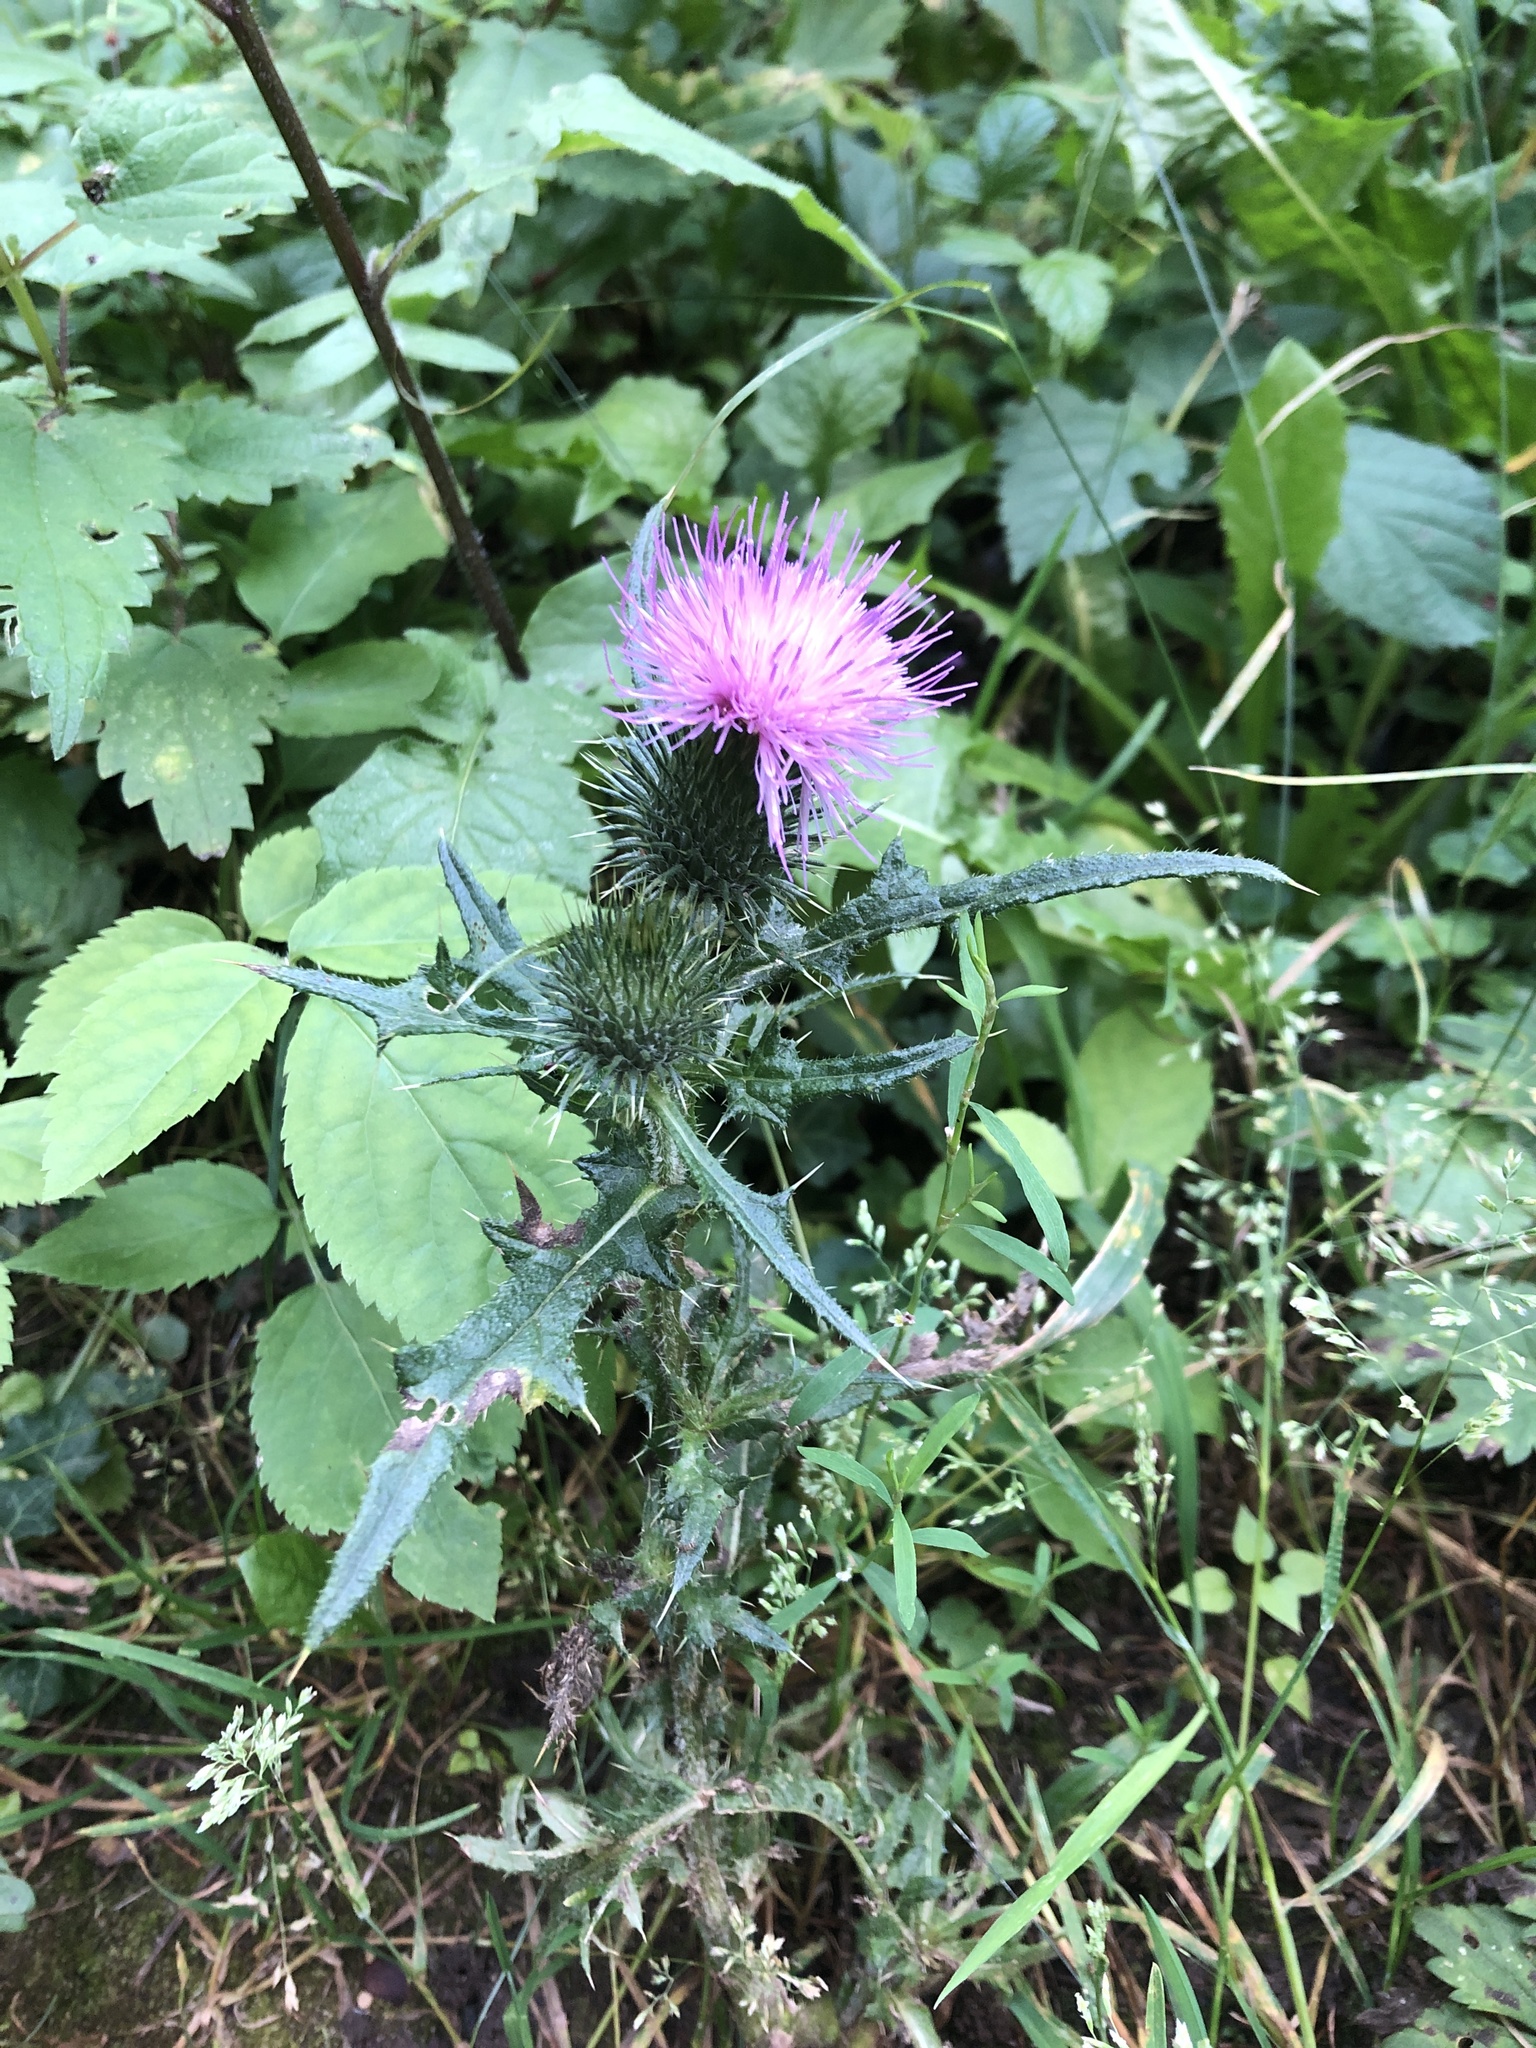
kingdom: Plantae
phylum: Tracheophyta
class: Magnoliopsida
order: Asterales
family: Asteraceae
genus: Cirsium
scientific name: Cirsium vulgare
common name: Bull thistle
